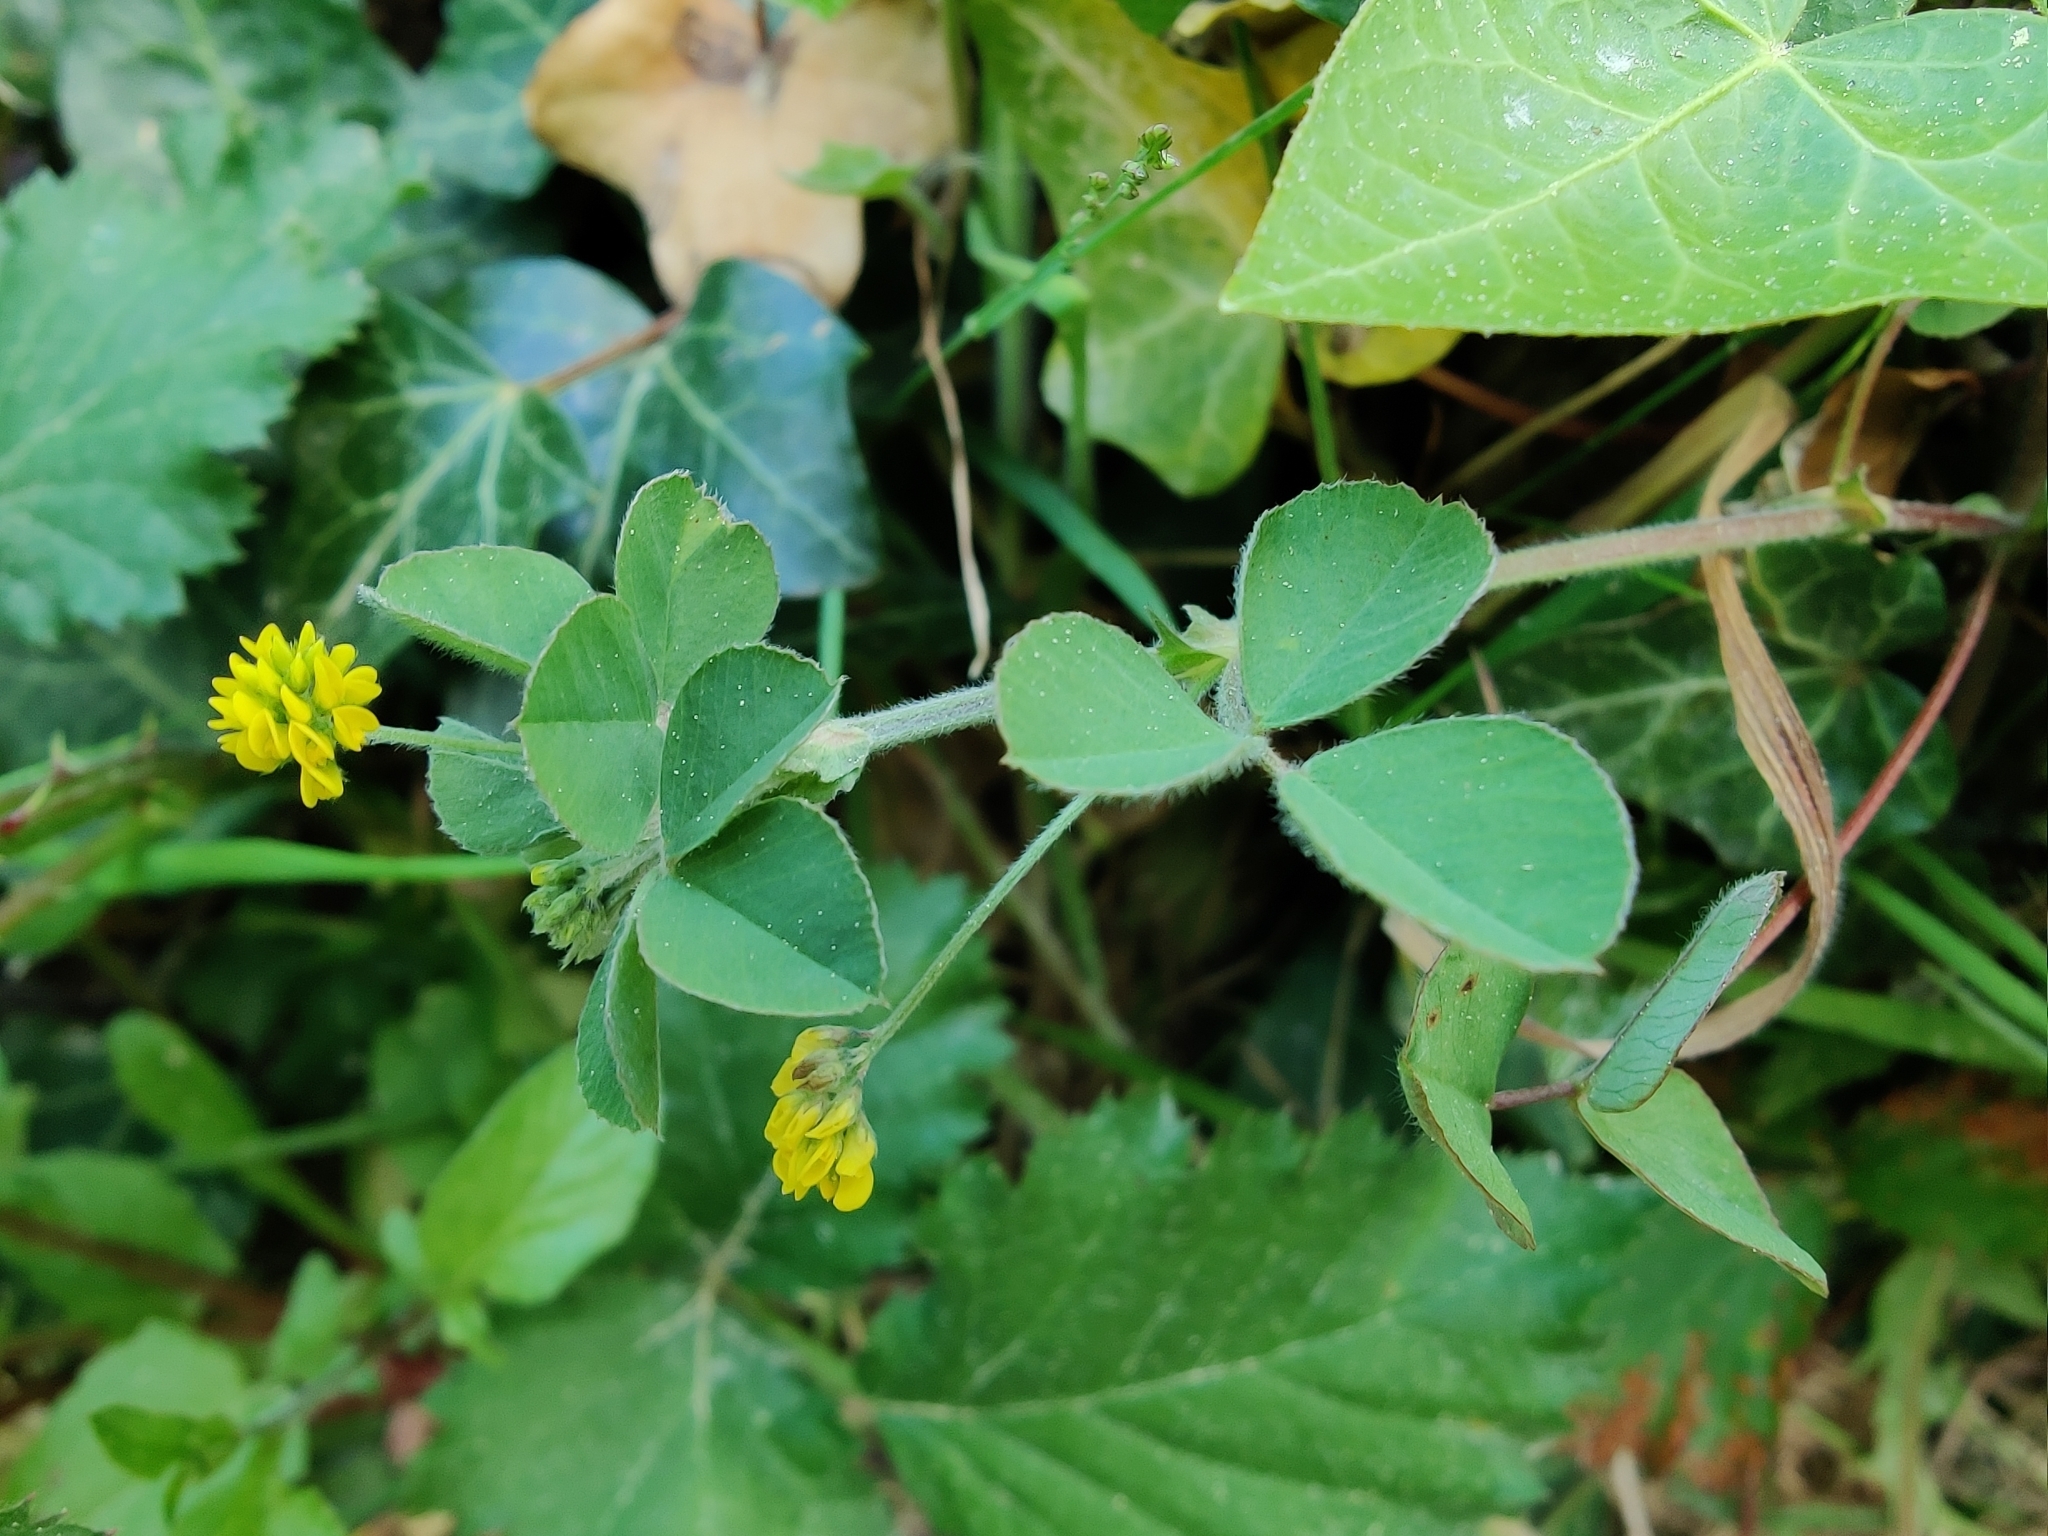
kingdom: Plantae
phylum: Tracheophyta
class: Magnoliopsida
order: Fabales
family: Fabaceae
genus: Medicago
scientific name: Medicago lupulina
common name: Black medick
